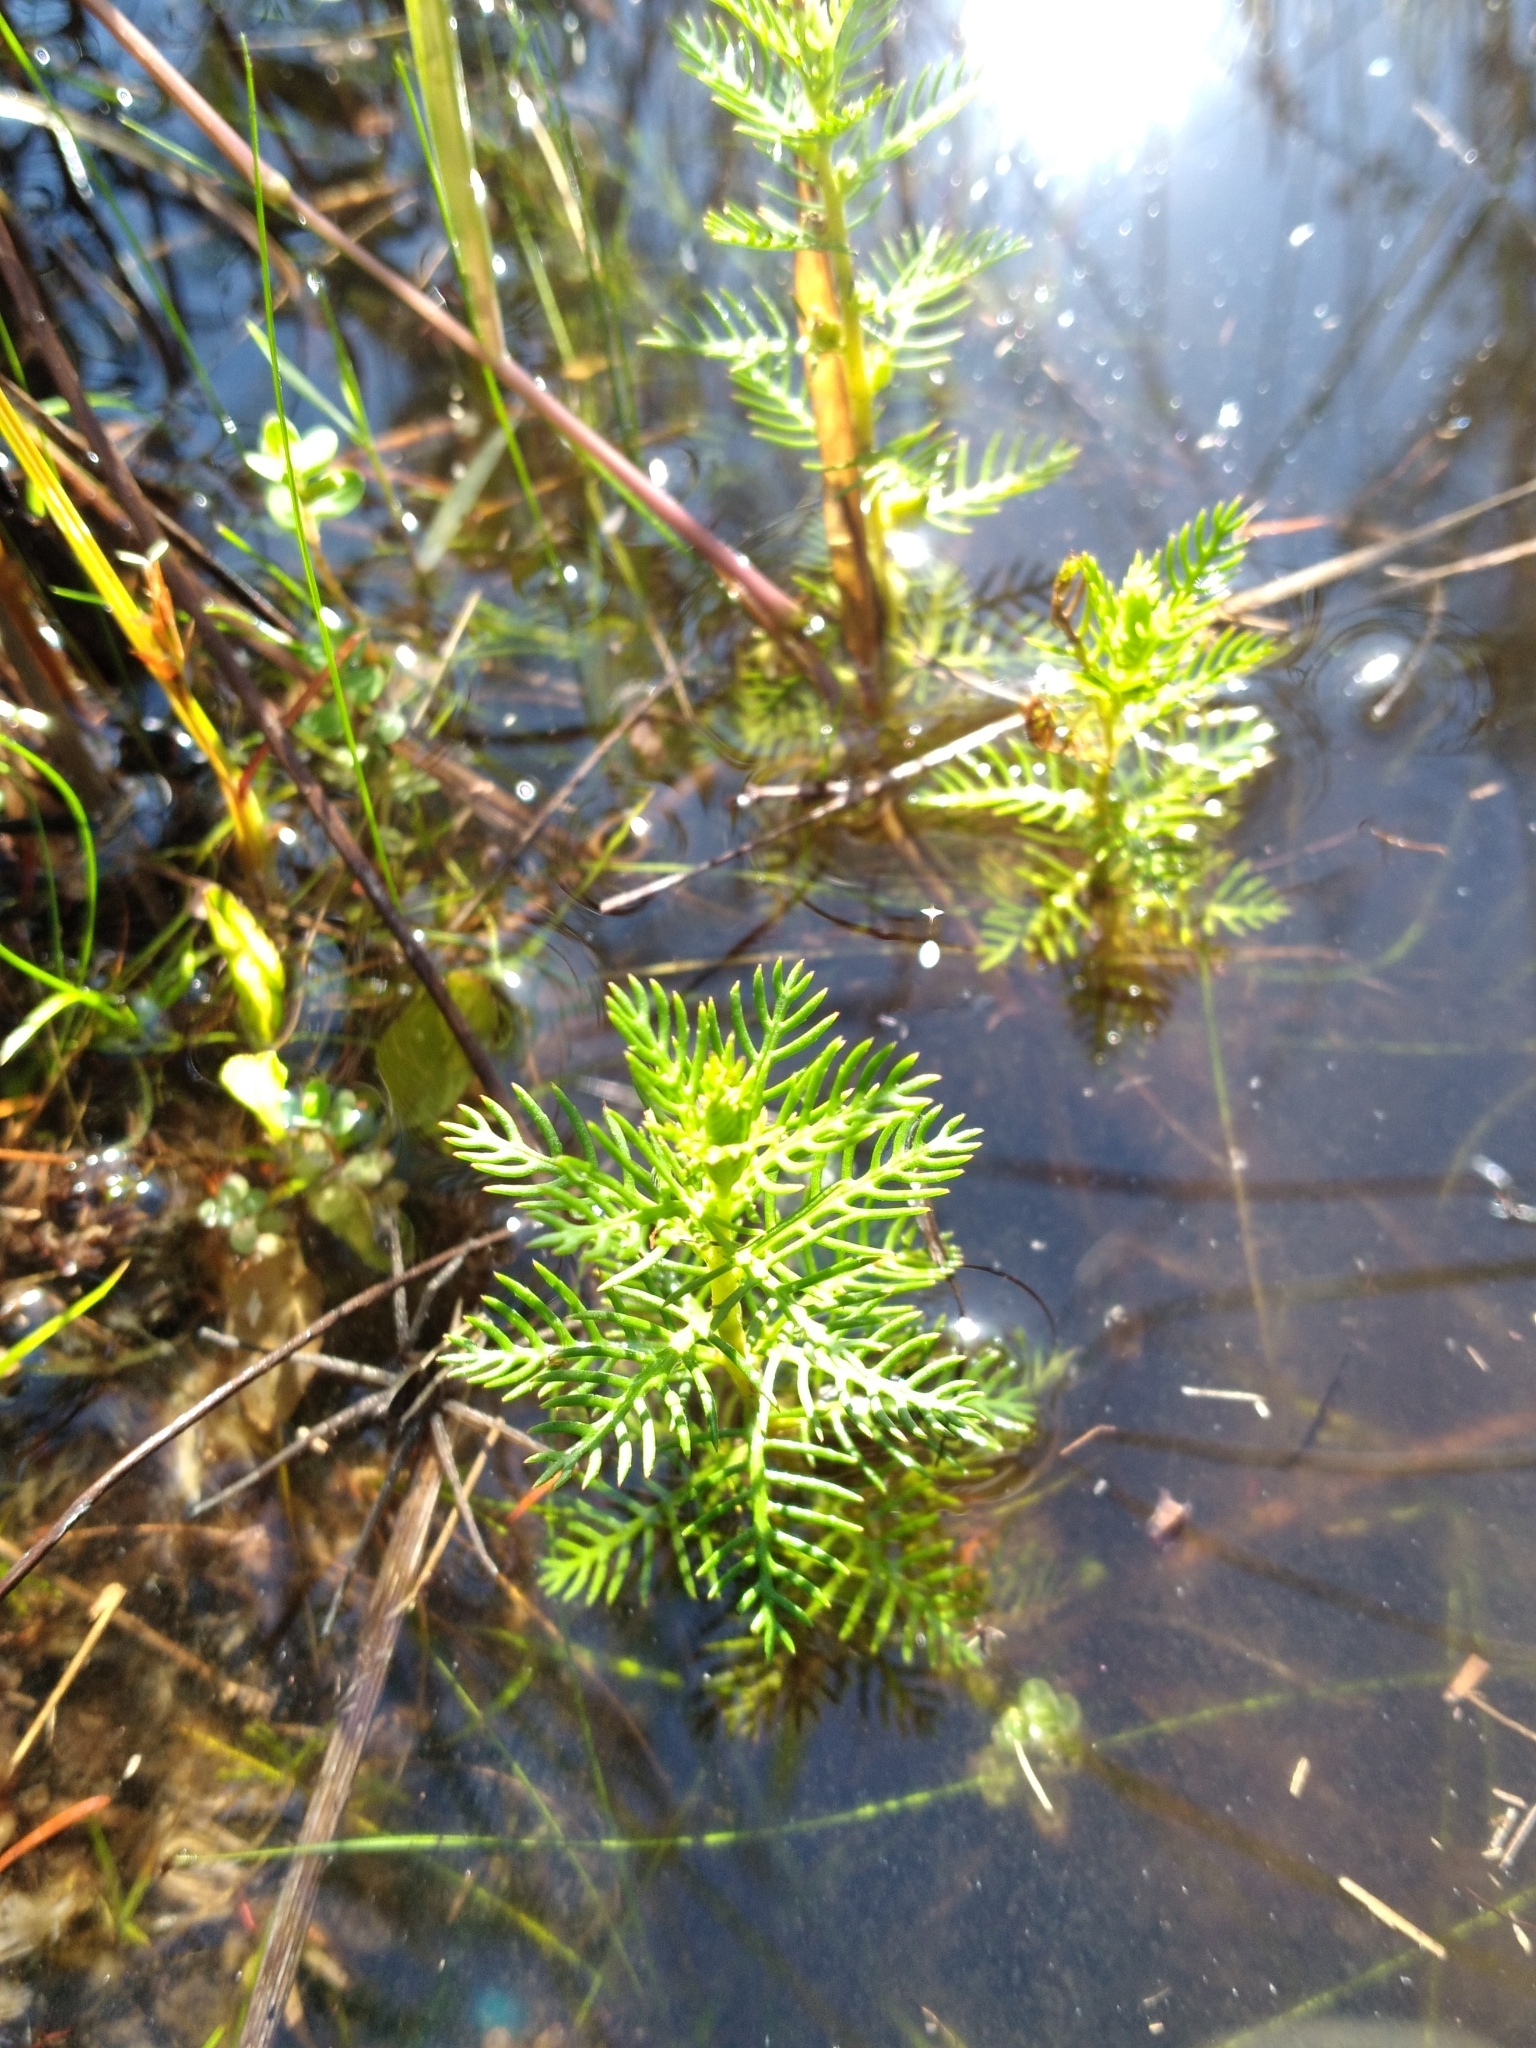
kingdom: Plantae
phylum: Tracheophyta
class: Magnoliopsida
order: Saxifragales
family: Haloragaceae
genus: Proserpinaca
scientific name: Proserpinaca pectinata
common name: Comb-leaved mermaidweed
